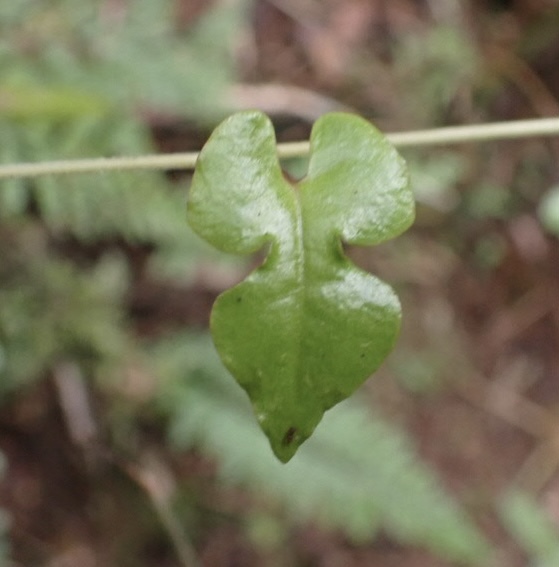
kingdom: Plantae
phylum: Tracheophyta
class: Magnoliopsida
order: Caryophyllales
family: Polygonaceae
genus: Muehlenbeckia
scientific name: Muehlenbeckia australis
